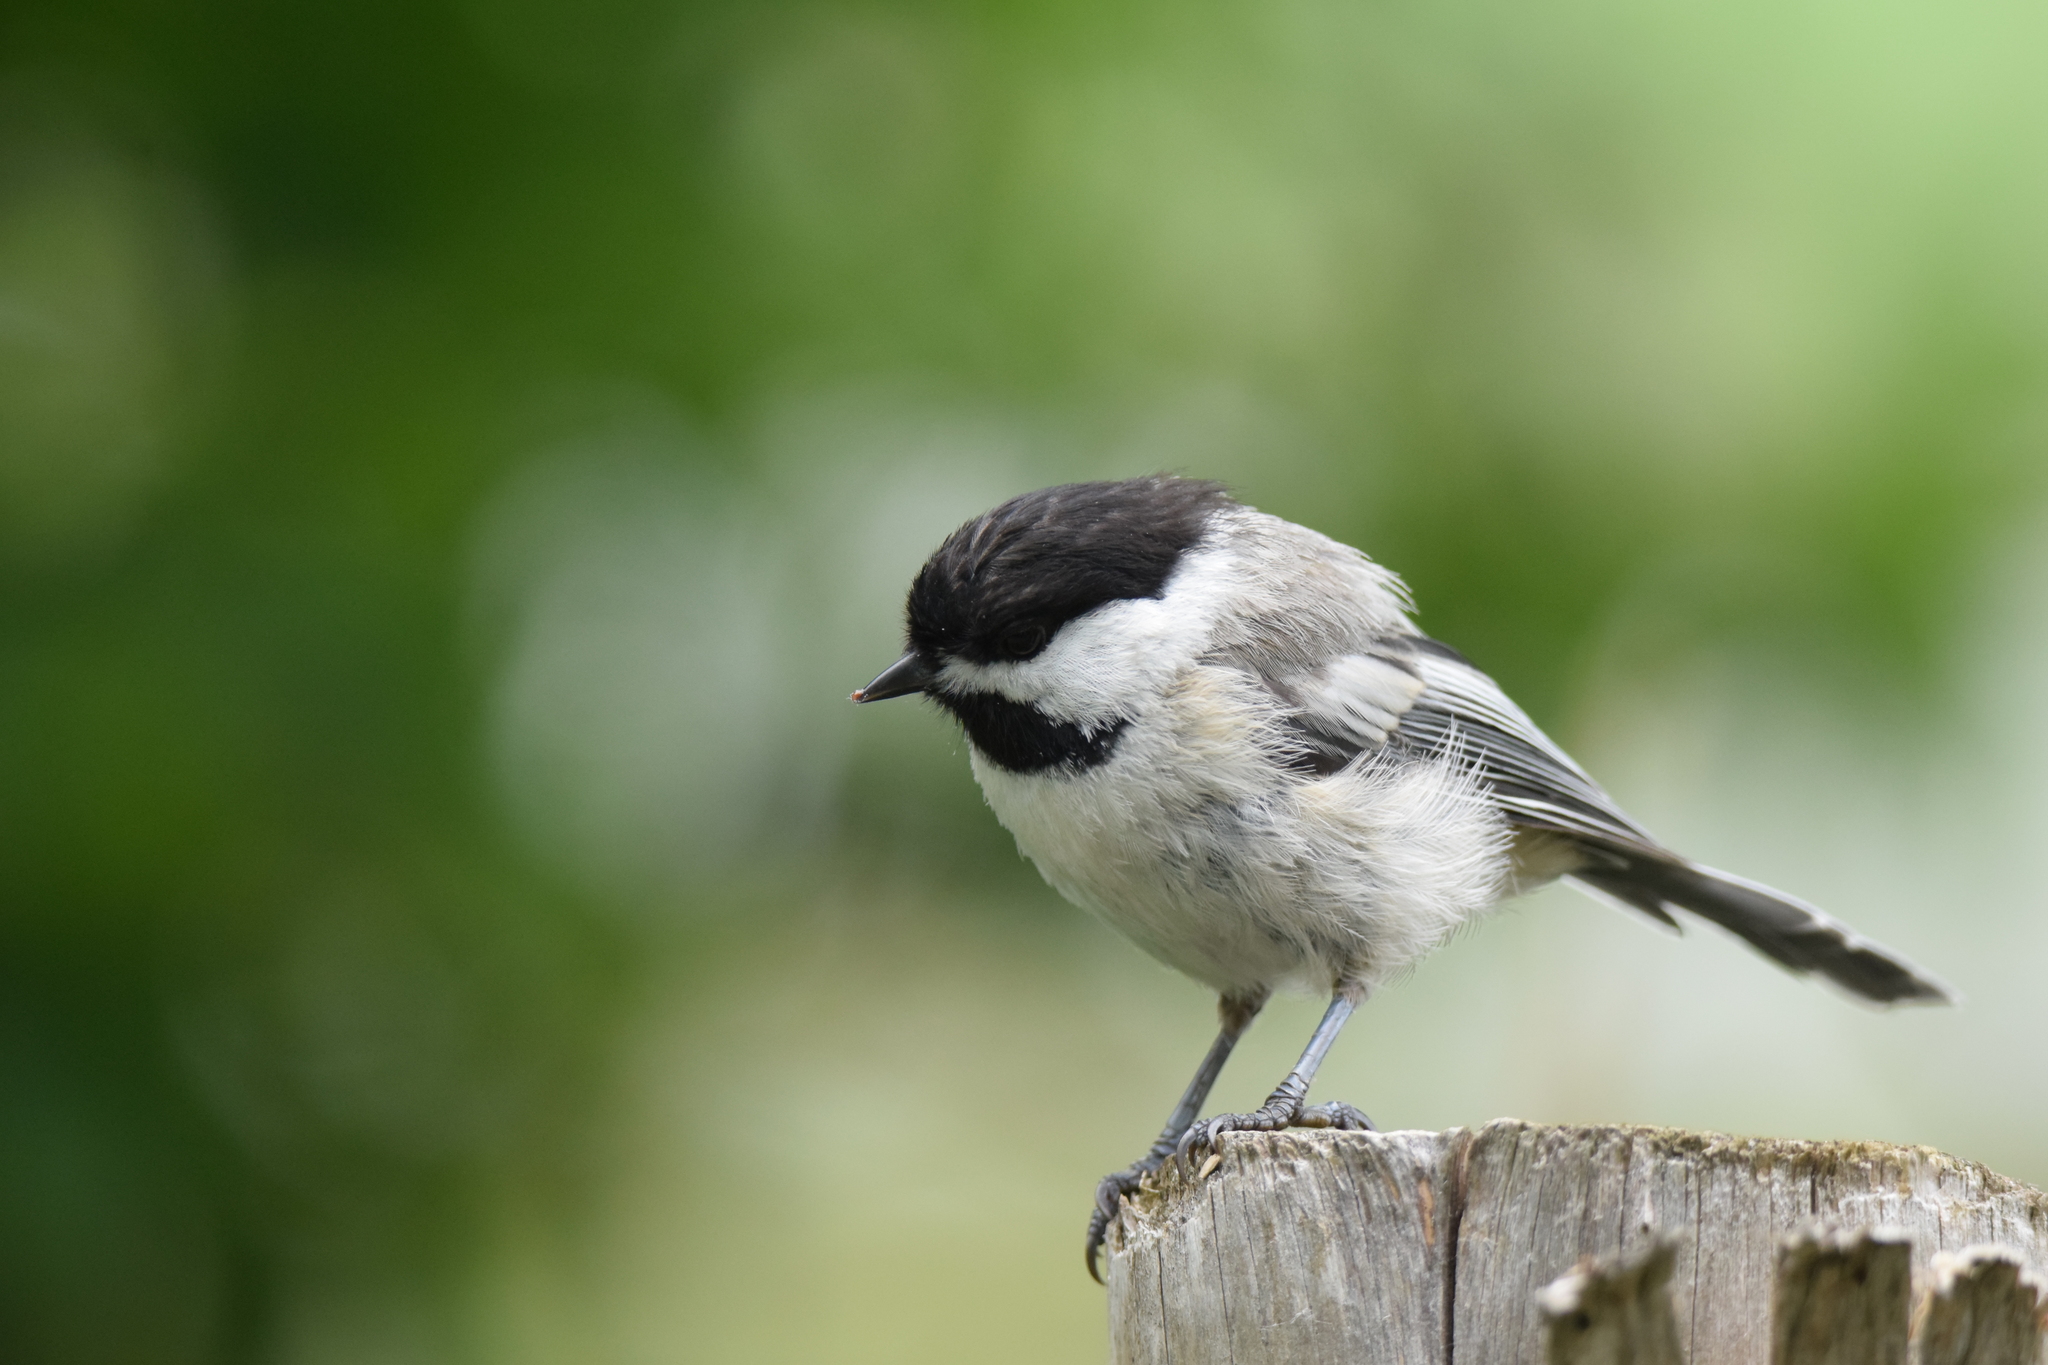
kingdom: Animalia
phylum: Chordata
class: Aves
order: Passeriformes
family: Paridae
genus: Poecile
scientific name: Poecile atricapillus
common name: Black-capped chickadee
